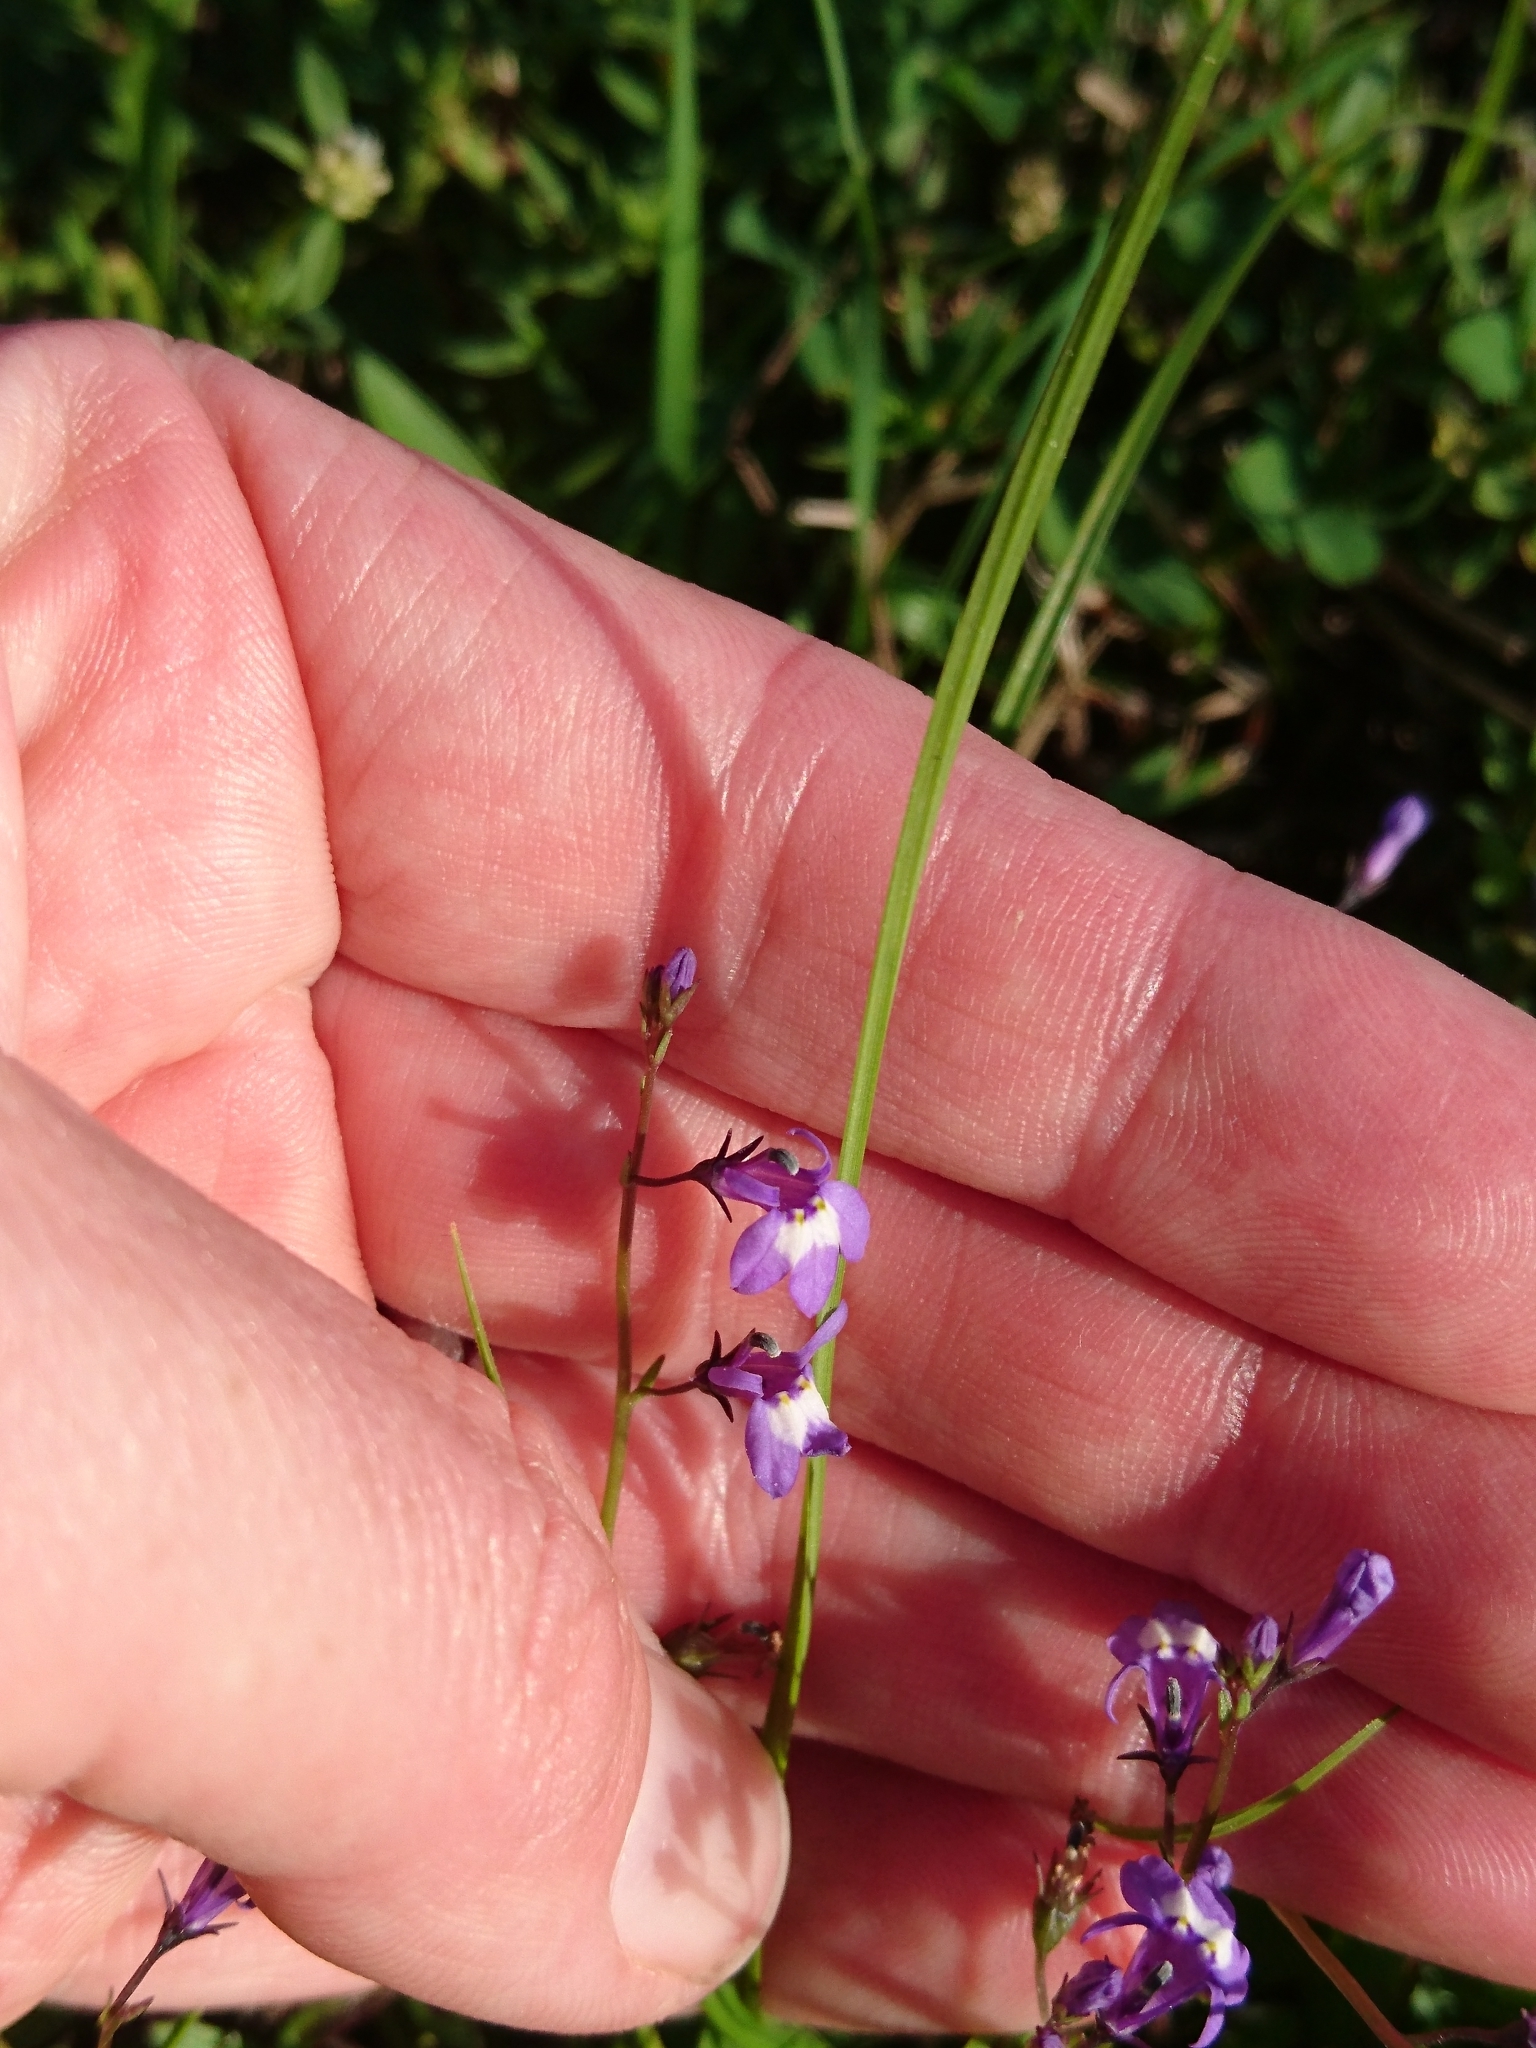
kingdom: Plantae
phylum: Tracheophyta
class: Magnoliopsida
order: Asterales
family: Campanulaceae
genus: Lobelia
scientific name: Lobelia feayana
